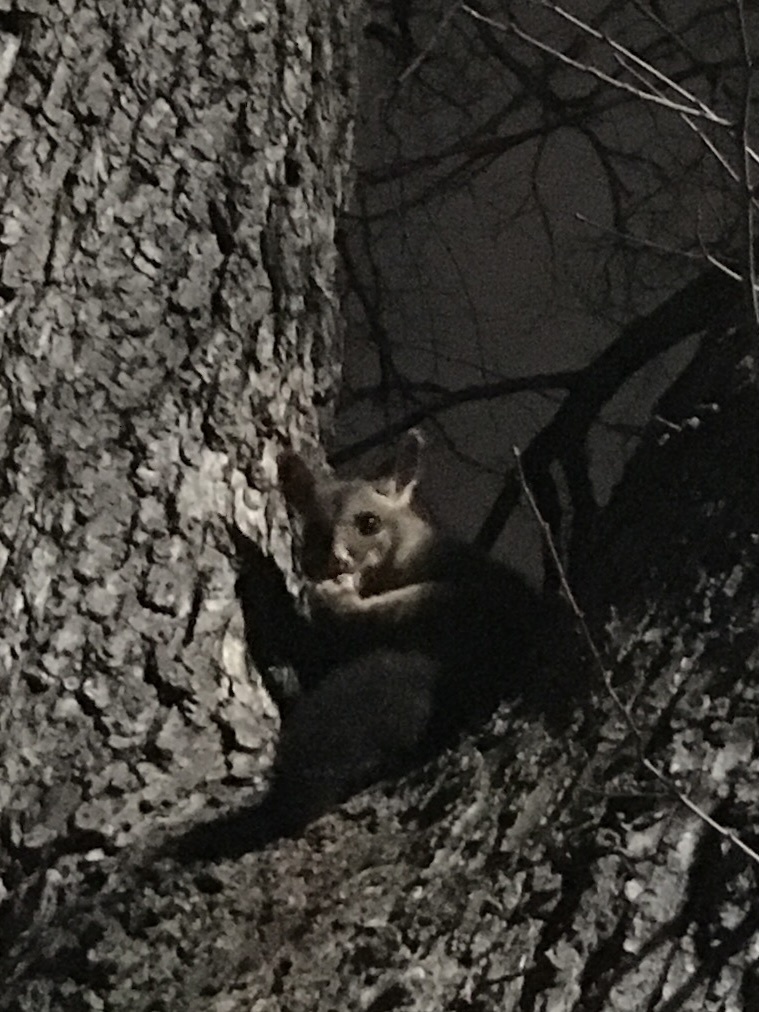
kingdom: Animalia
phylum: Chordata
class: Mammalia
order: Diprotodontia
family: Phalangeridae
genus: Trichosurus
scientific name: Trichosurus vulpecula
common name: Common brushtail
